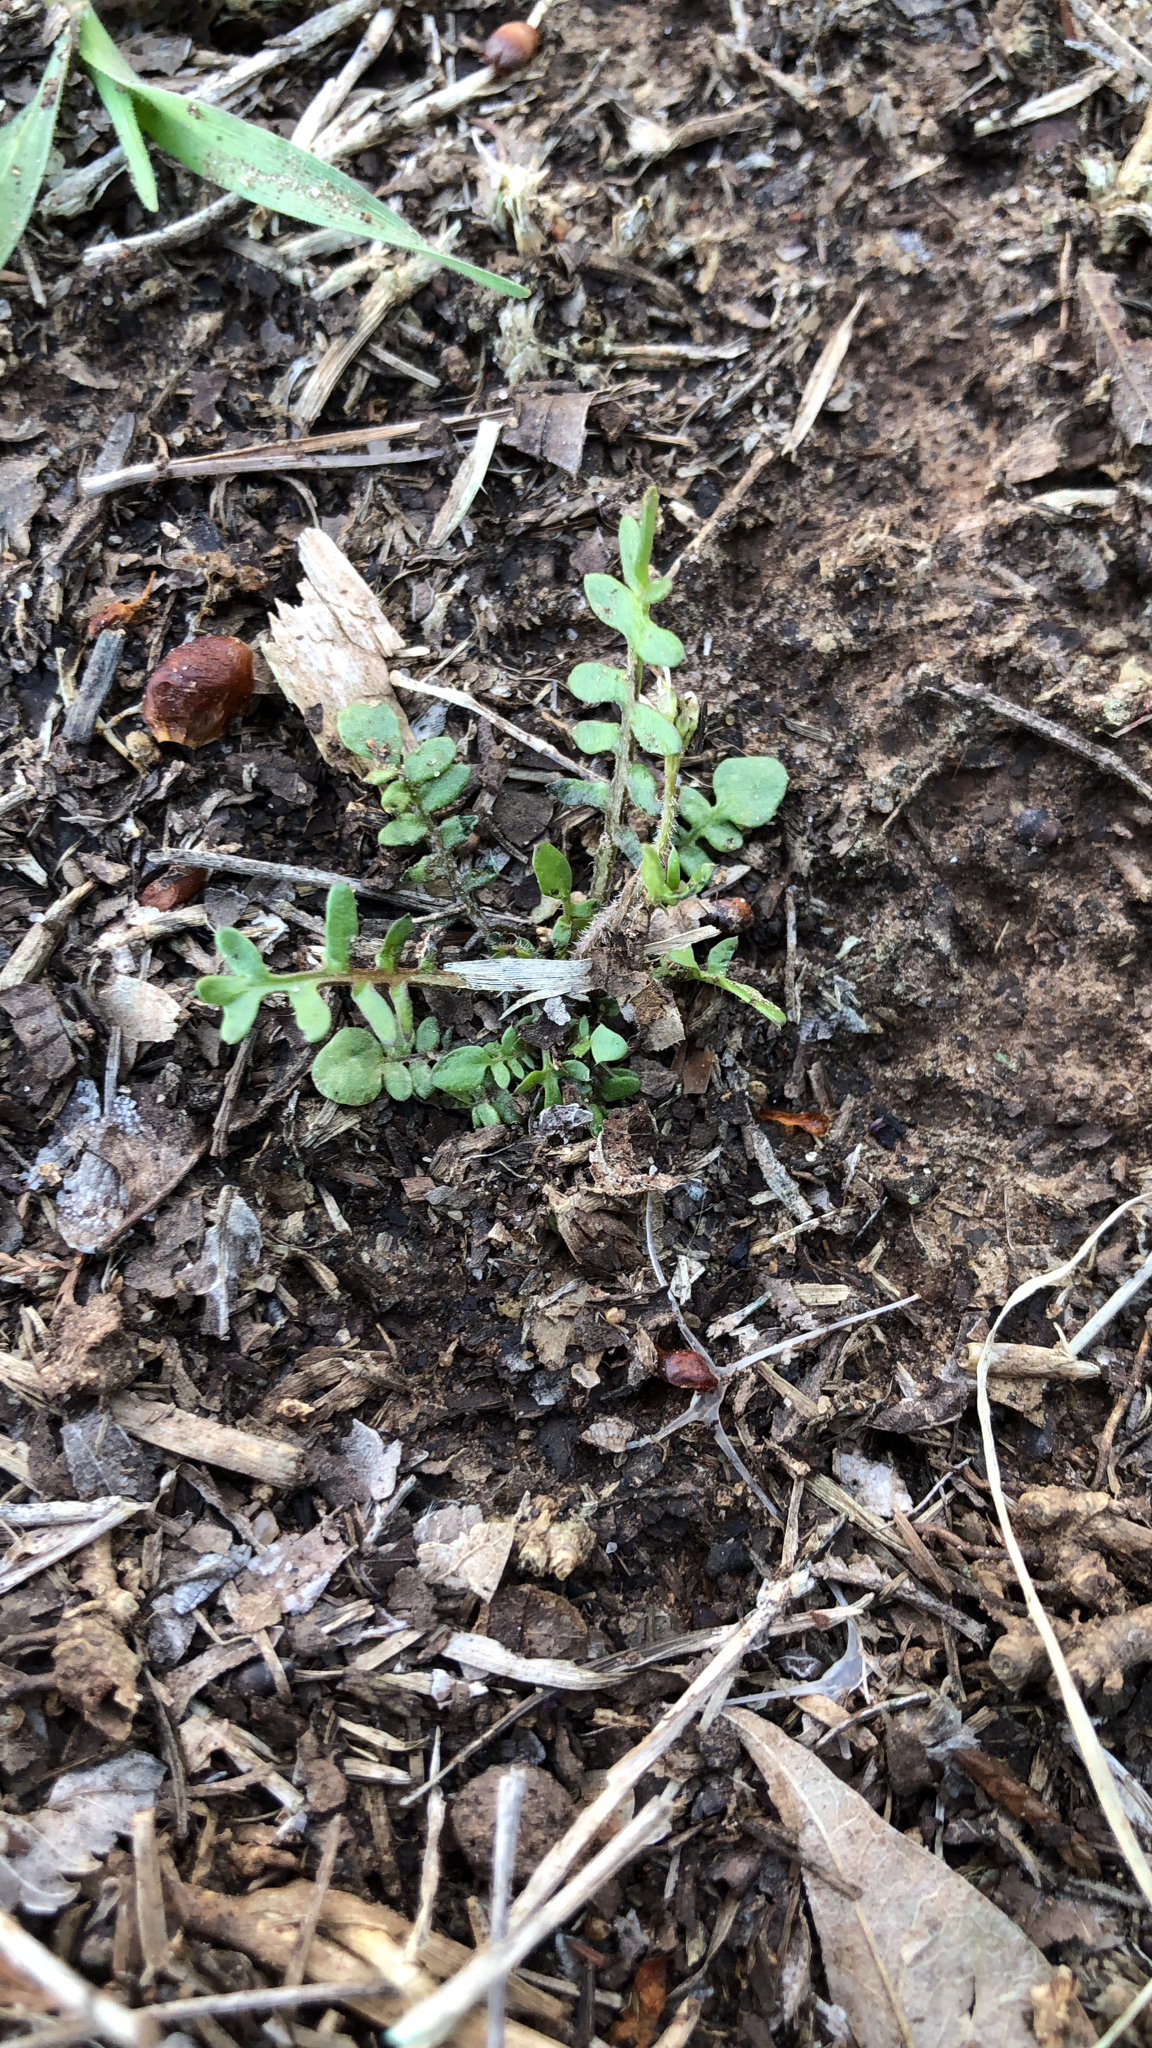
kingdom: Plantae
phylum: Tracheophyta
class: Magnoliopsida
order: Brassicales
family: Brassicaceae
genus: Planodes
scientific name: Planodes virginicum
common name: Virginia cress
